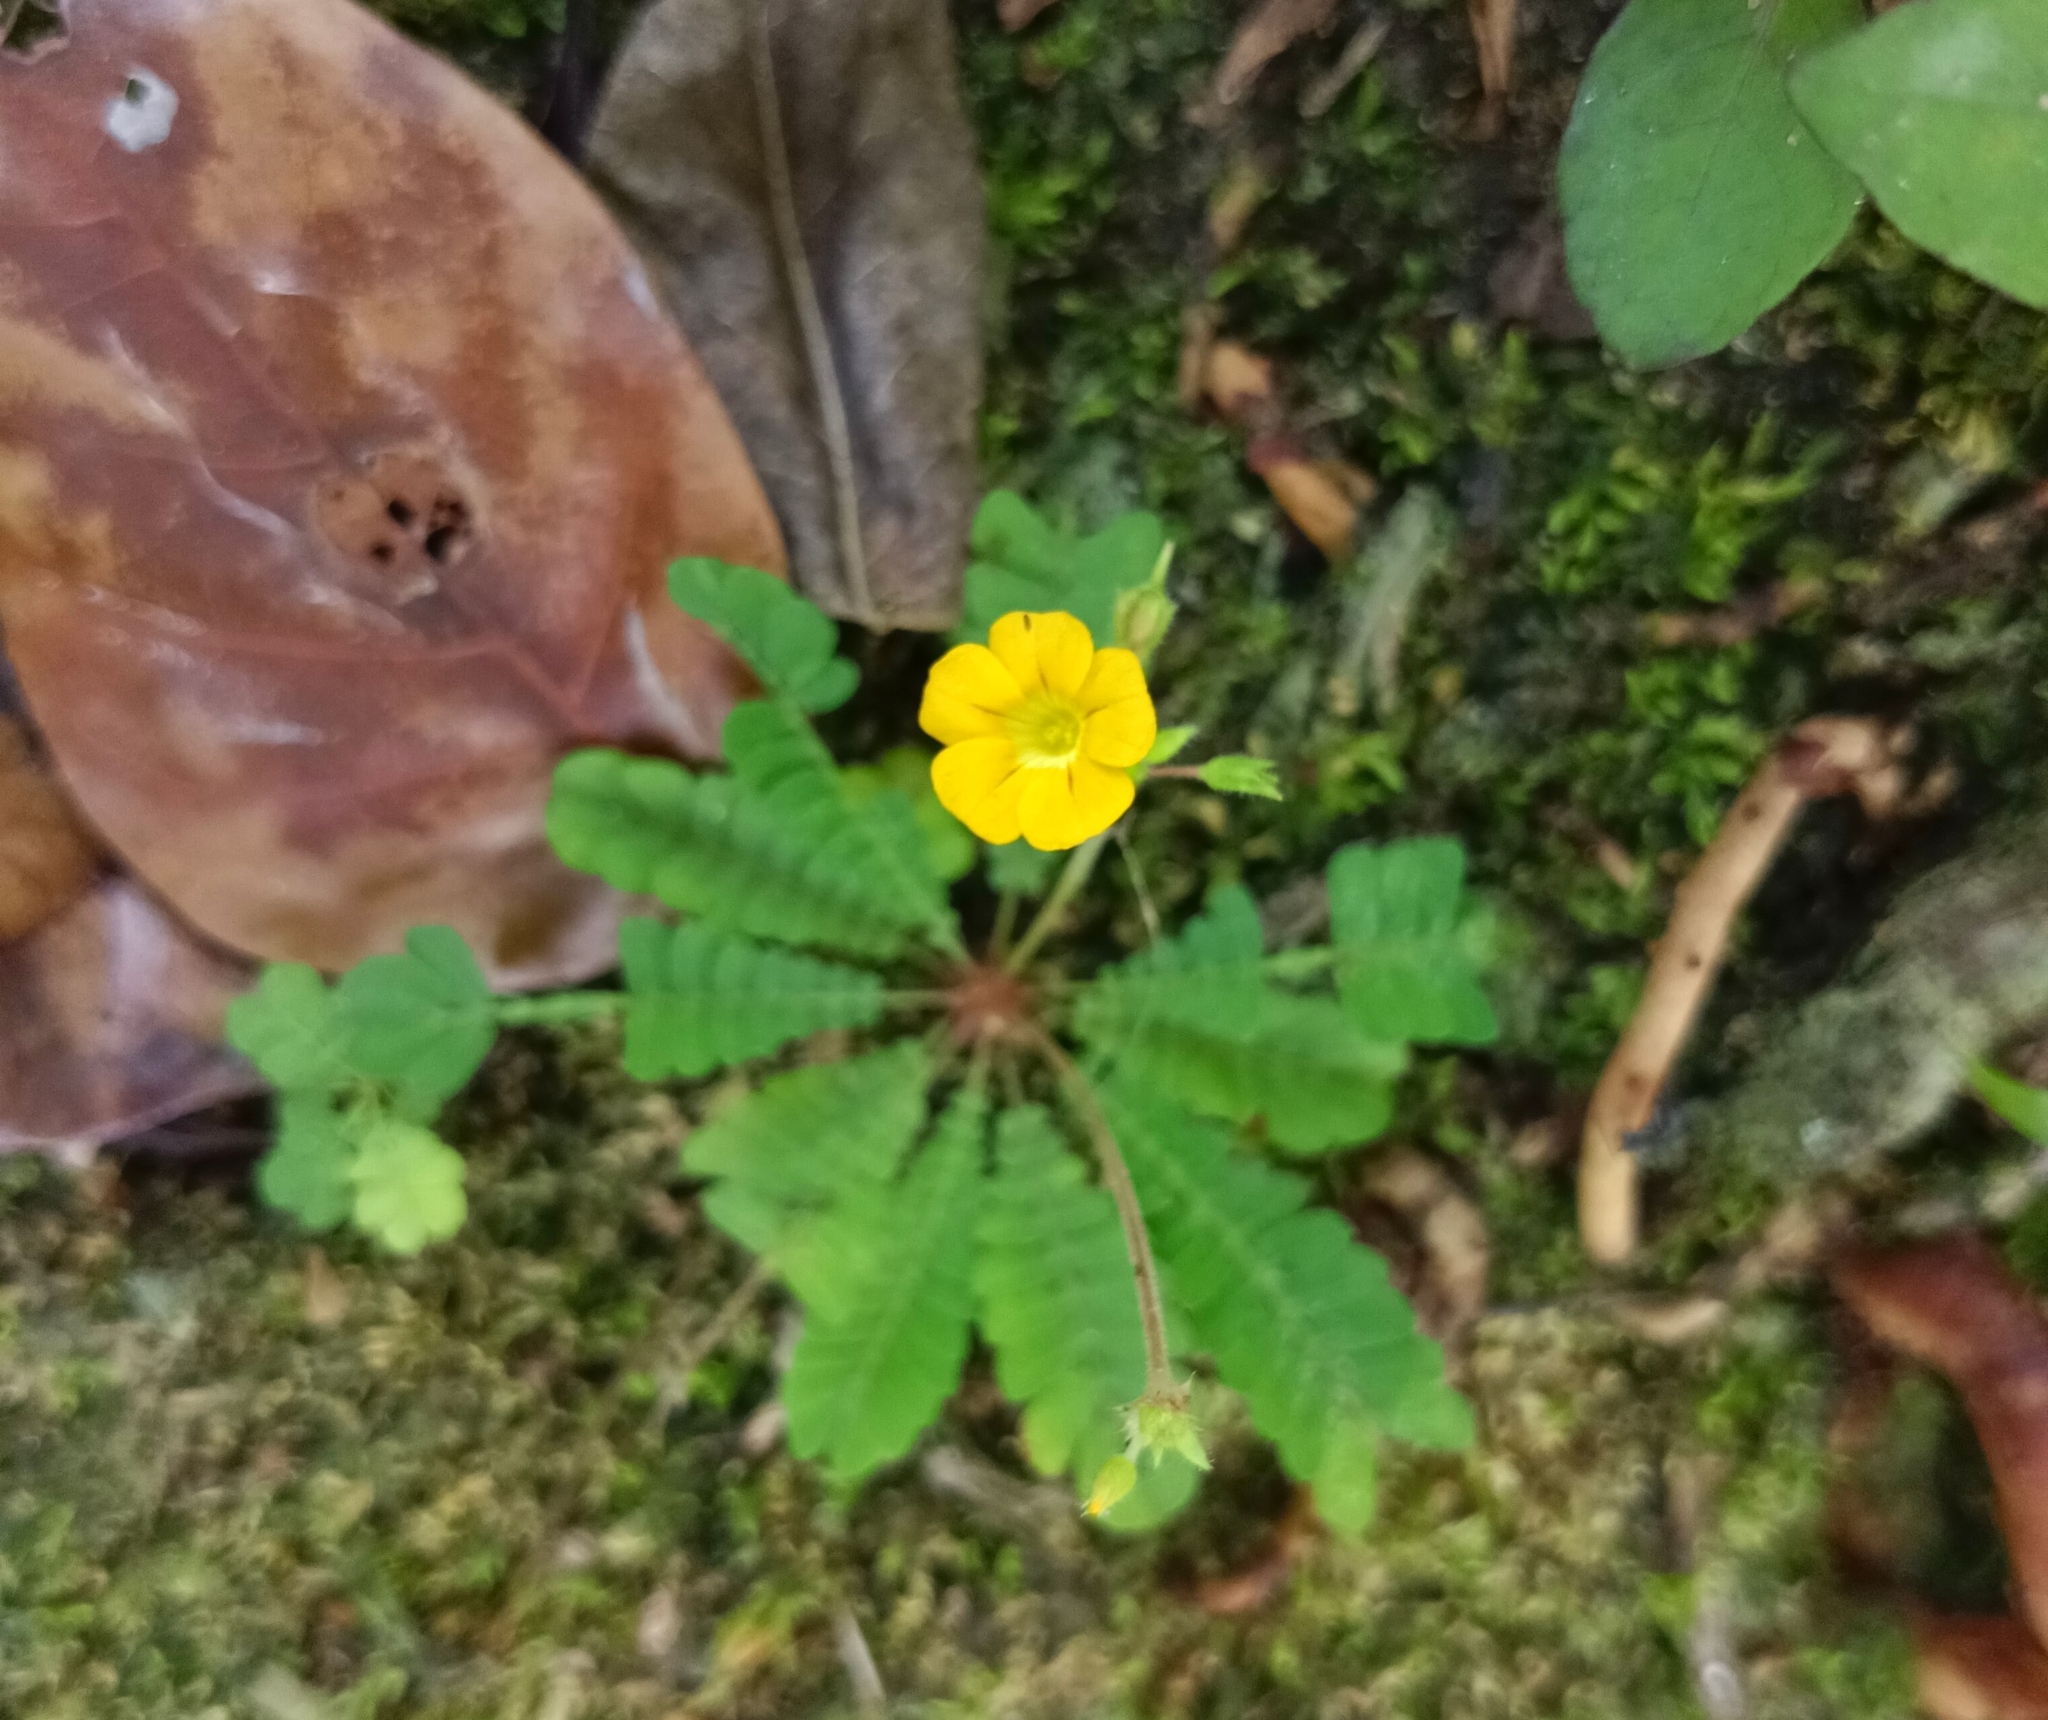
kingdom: Plantae
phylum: Tracheophyta
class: Magnoliopsida
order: Oxalidales
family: Oxalidaceae
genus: Biophytum
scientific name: Biophytum sensitivum
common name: Lifeplant
